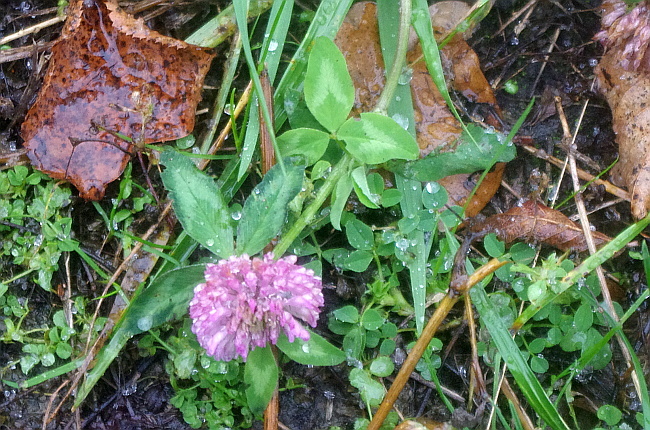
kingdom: Plantae
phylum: Tracheophyta
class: Magnoliopsida
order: Fabales
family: Fabaceae
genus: Trifolium
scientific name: Trifolium pratense
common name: Red clover
